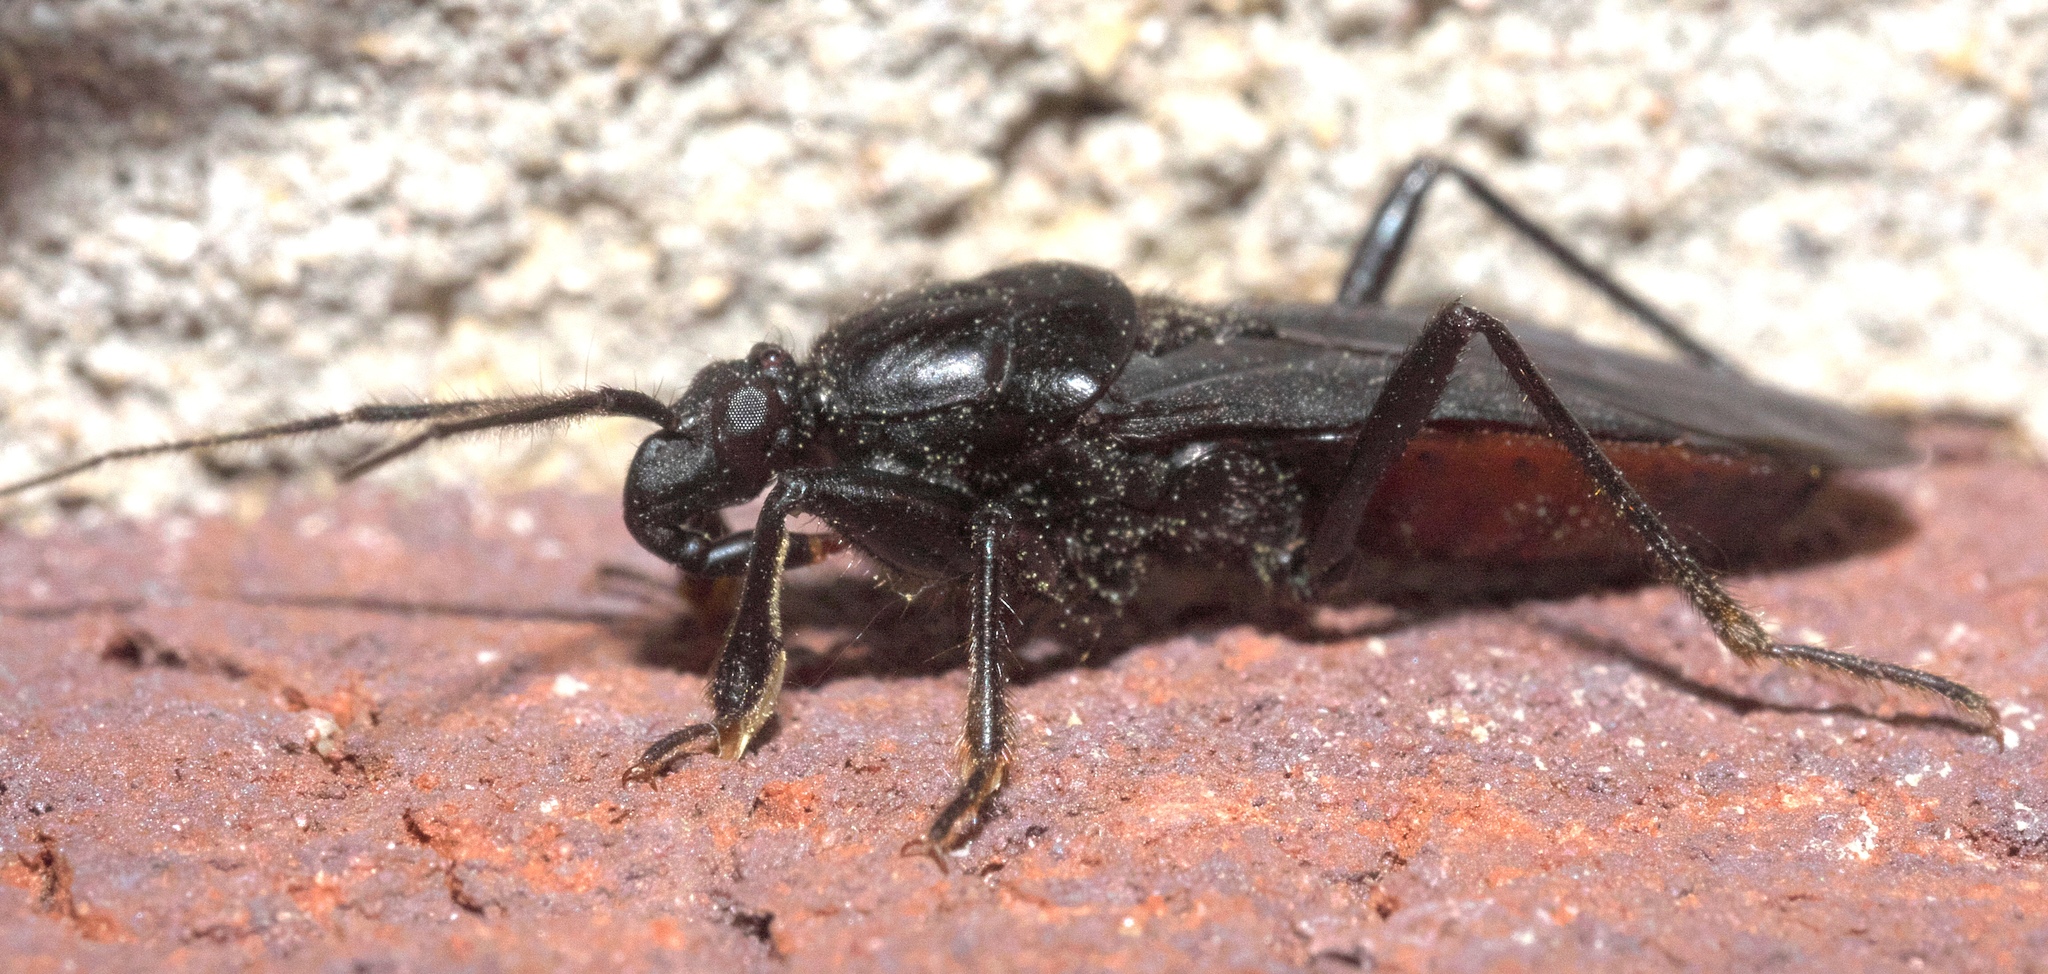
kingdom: Animalia
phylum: Arthropoda
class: Insecta
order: Hemiptera
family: Reduviidae
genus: Melanolestes
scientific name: Melanolestes picipes
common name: Assassin bug
